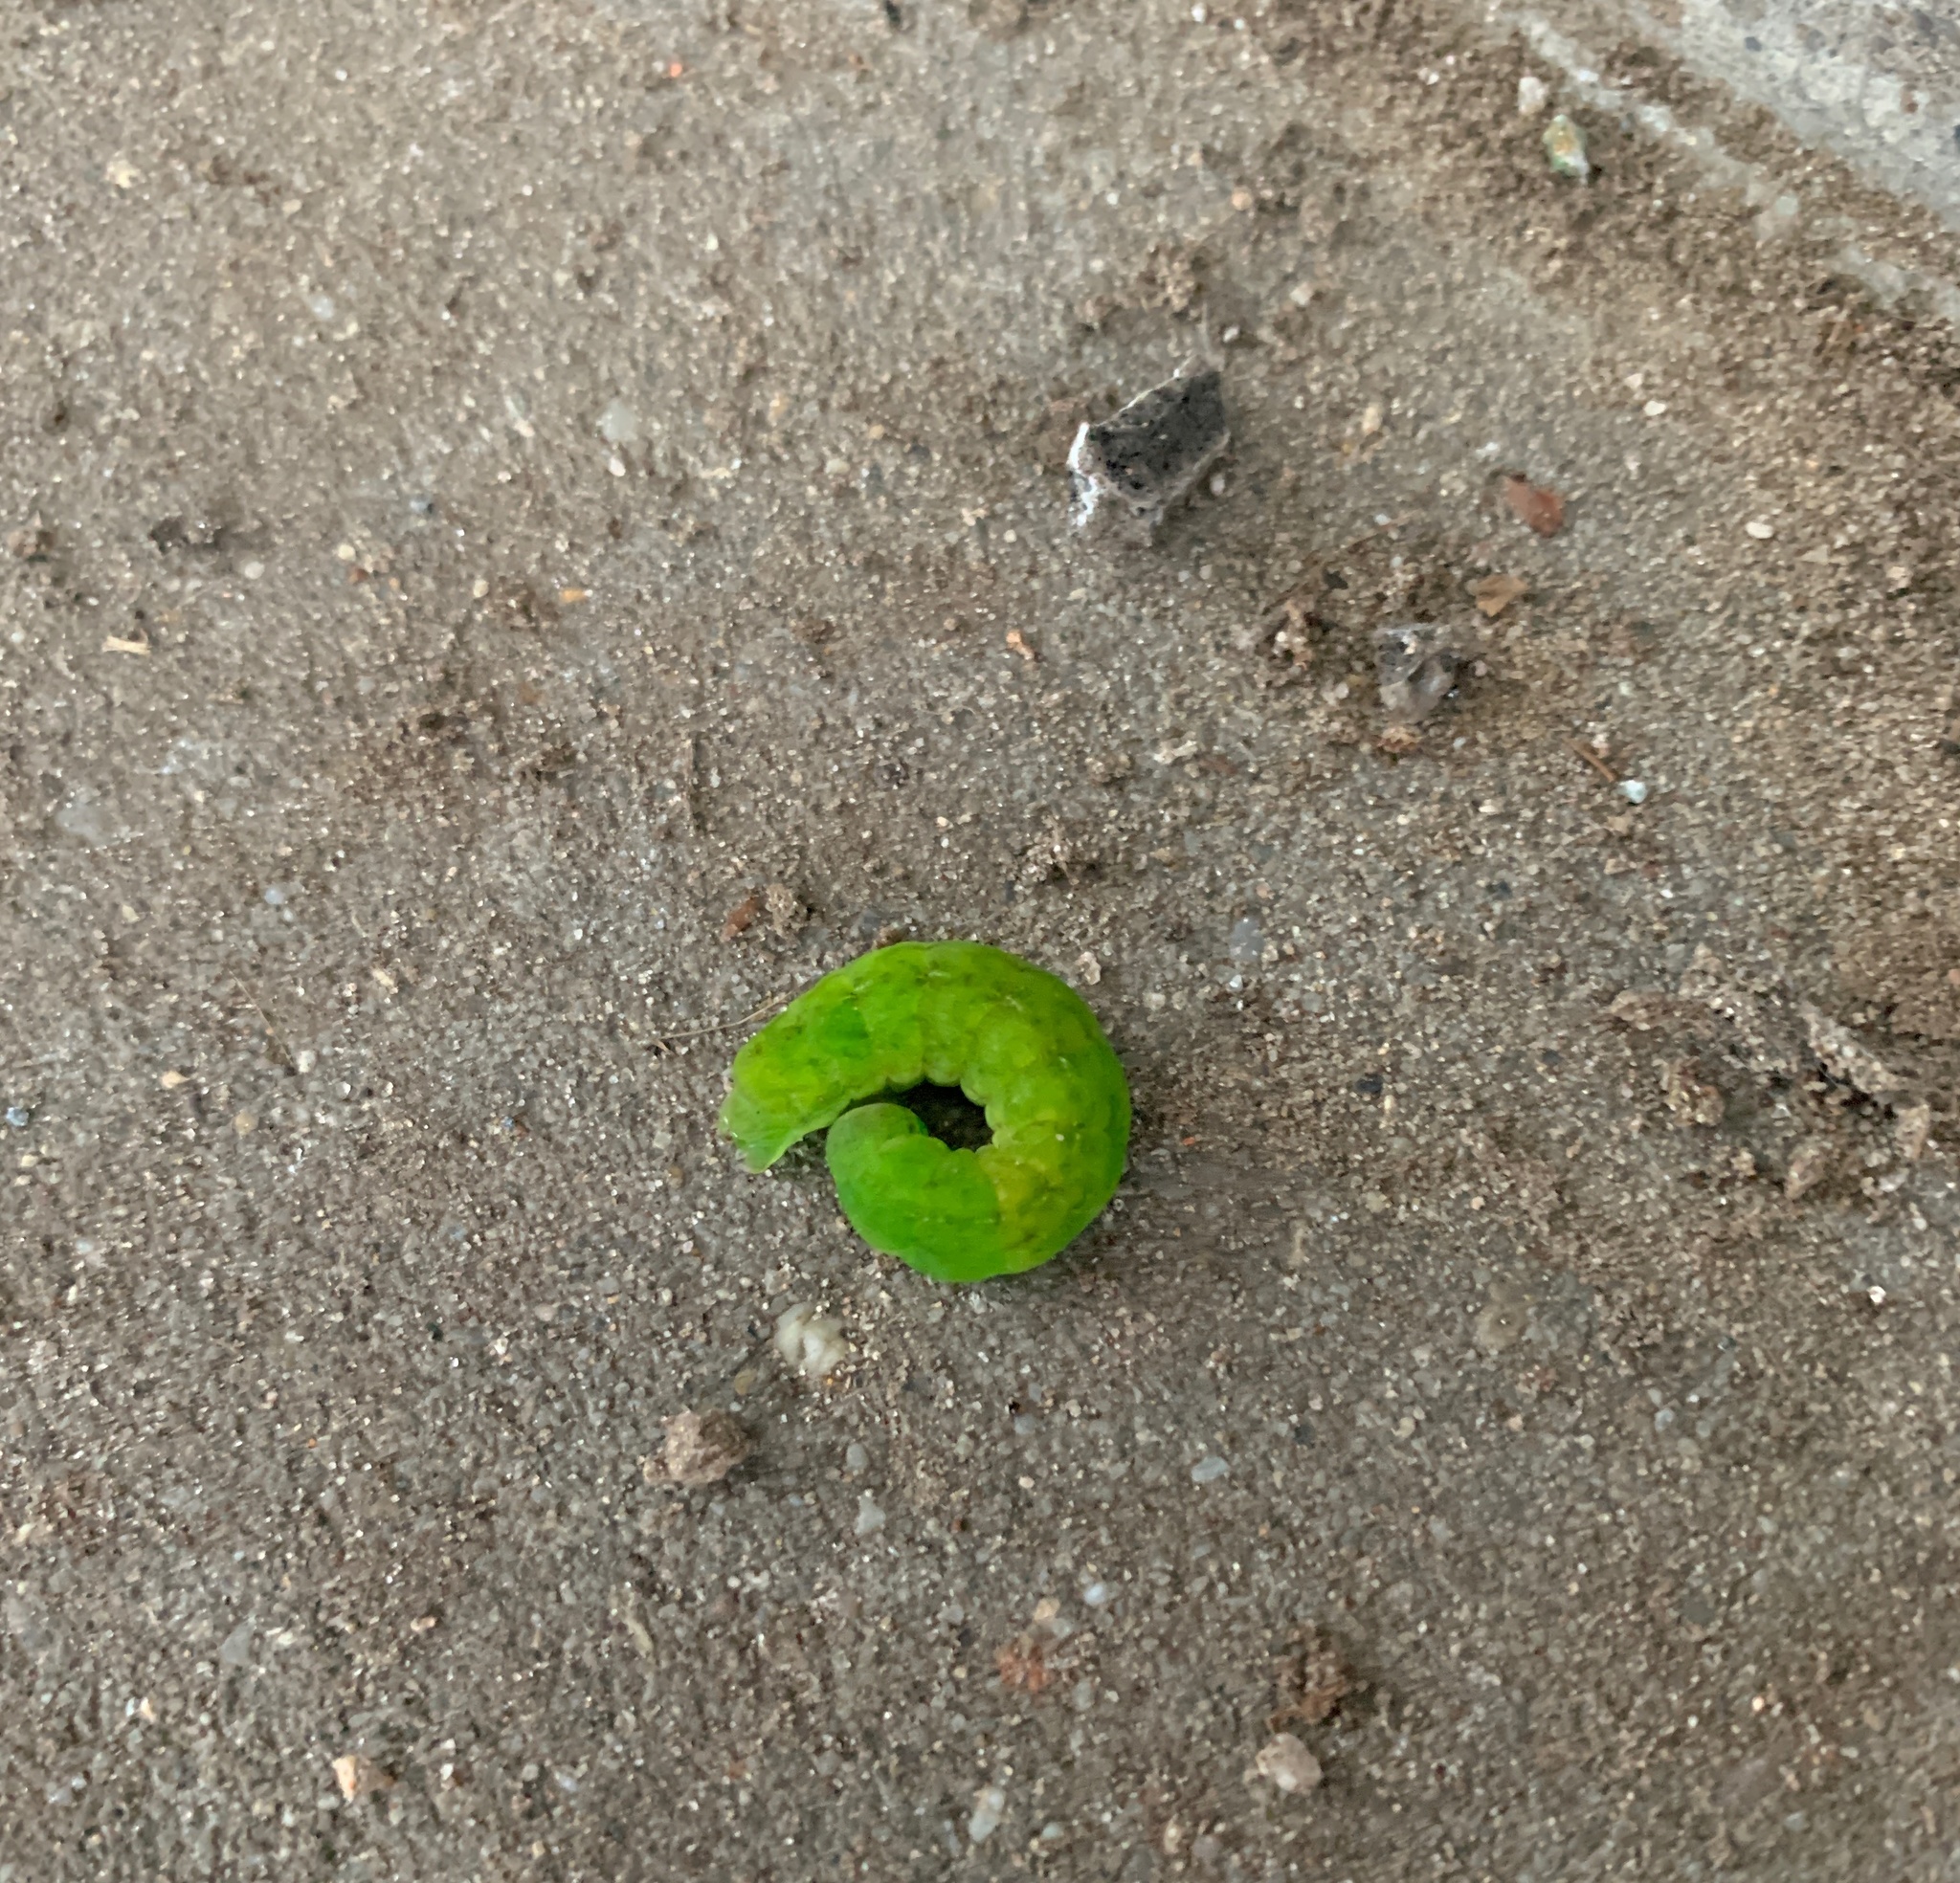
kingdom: Animalia
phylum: Arthropoda
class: Insecta
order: Lepidoptera
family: Noctuidae
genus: Phlogophora
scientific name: Phlogophora meticulosa
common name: Angle shades
